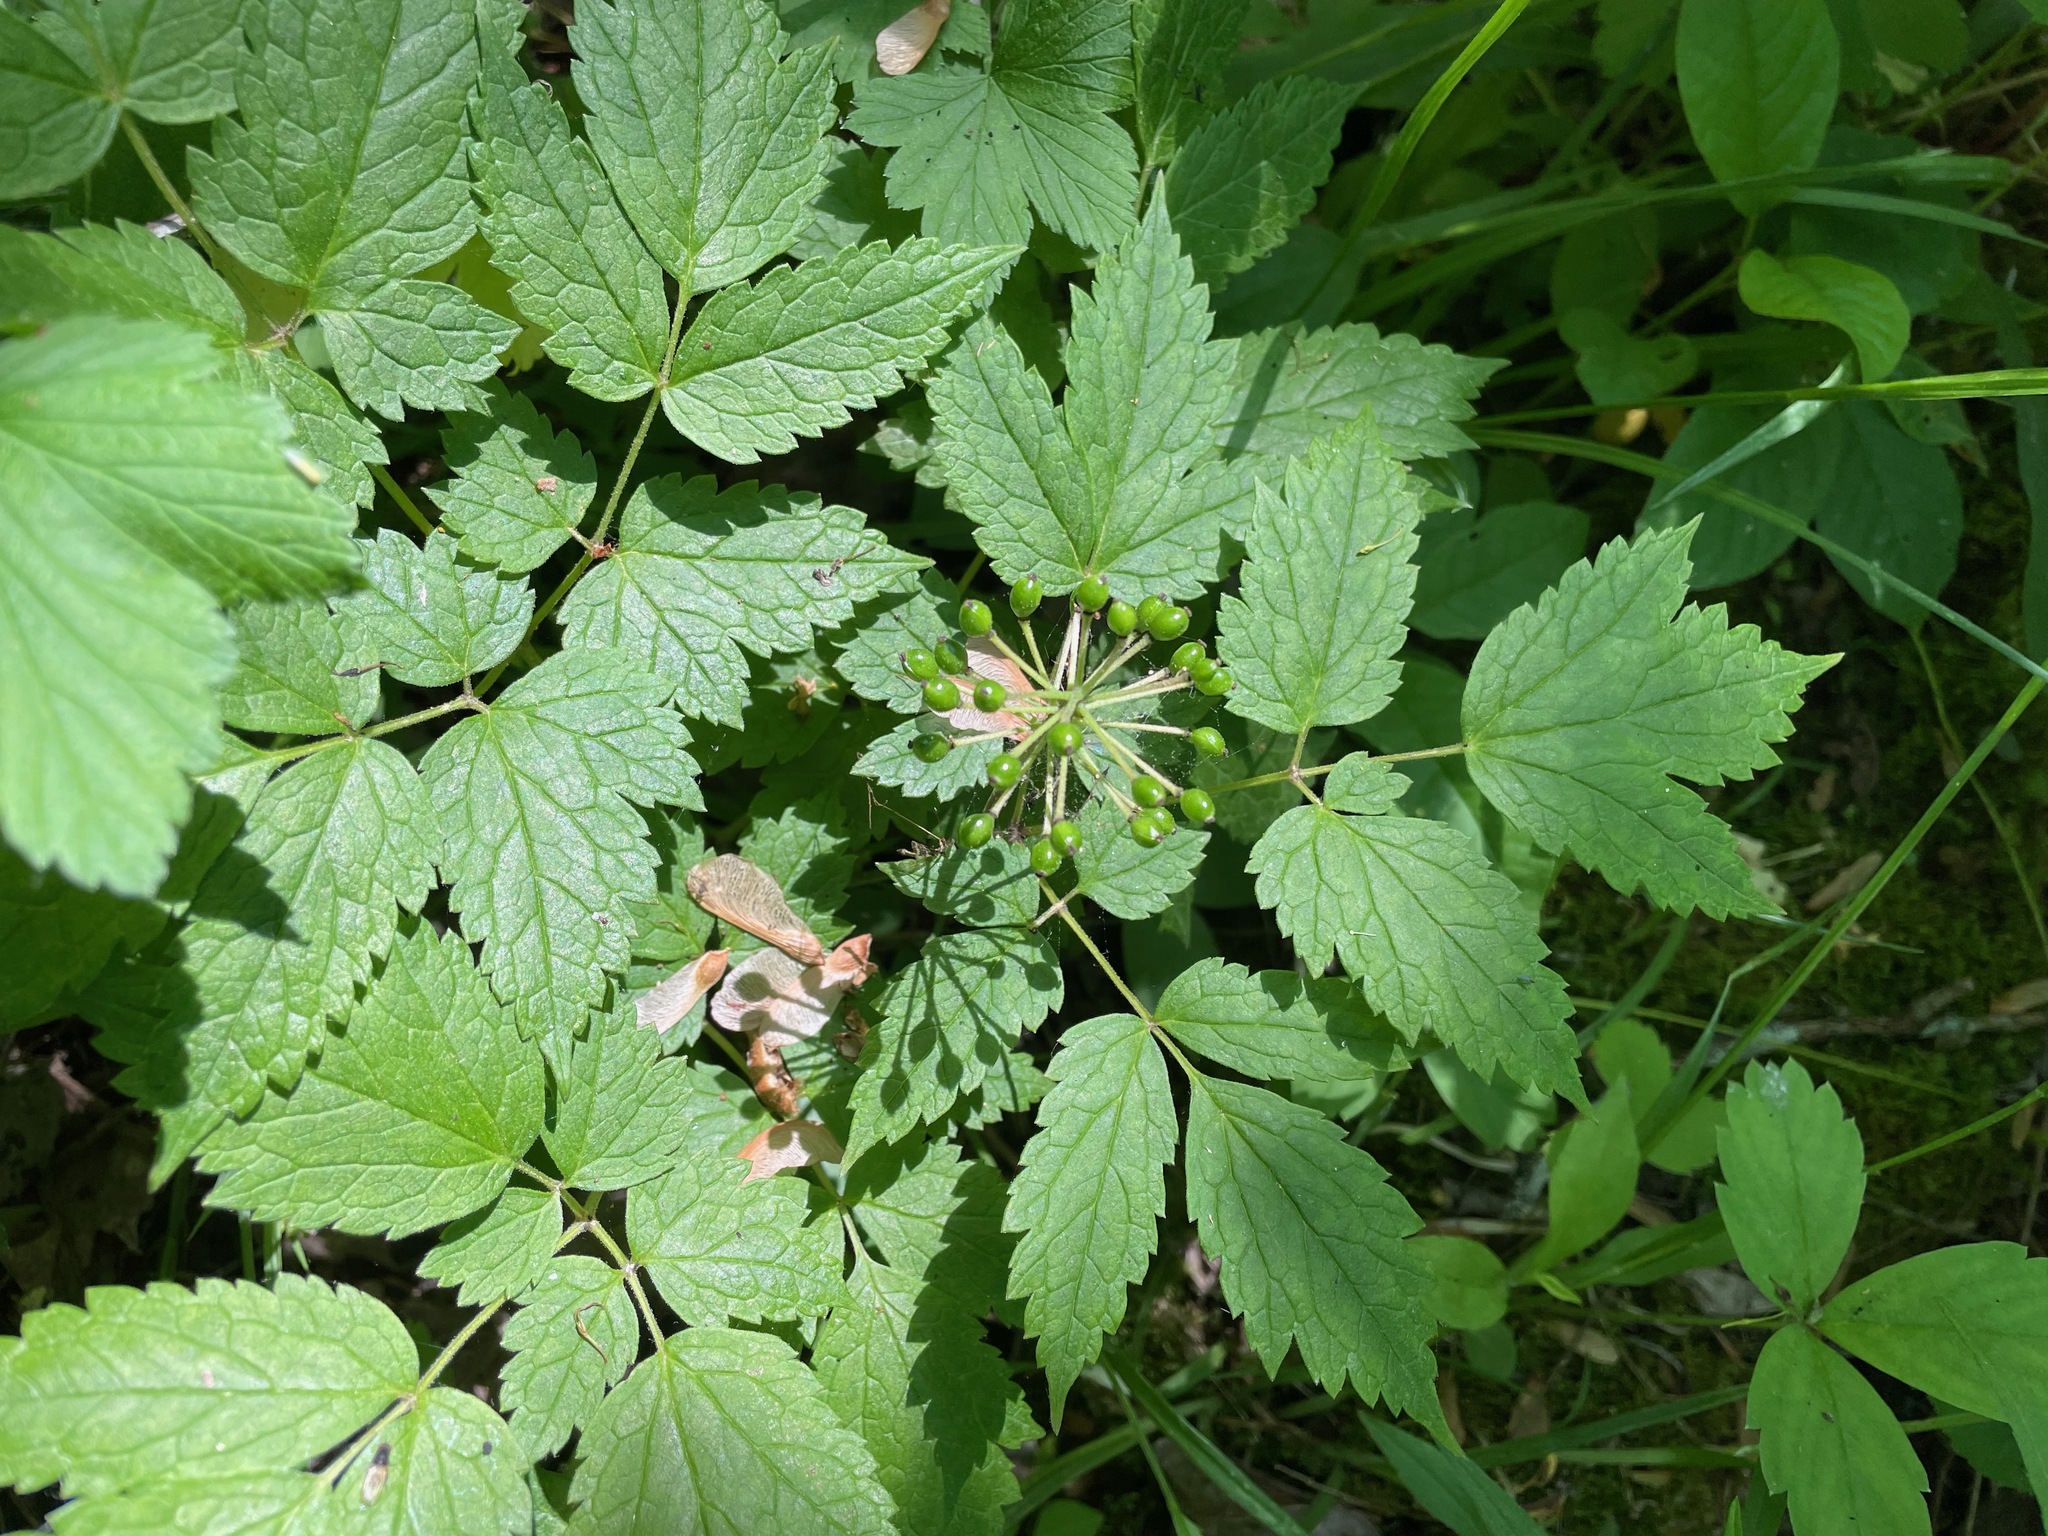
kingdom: Plantae
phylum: Tracheophyta
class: Magnoliopsida
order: Ranunculales
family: Ranunculaceae
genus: Actaea
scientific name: Actaea rubra
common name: Red baneberry
